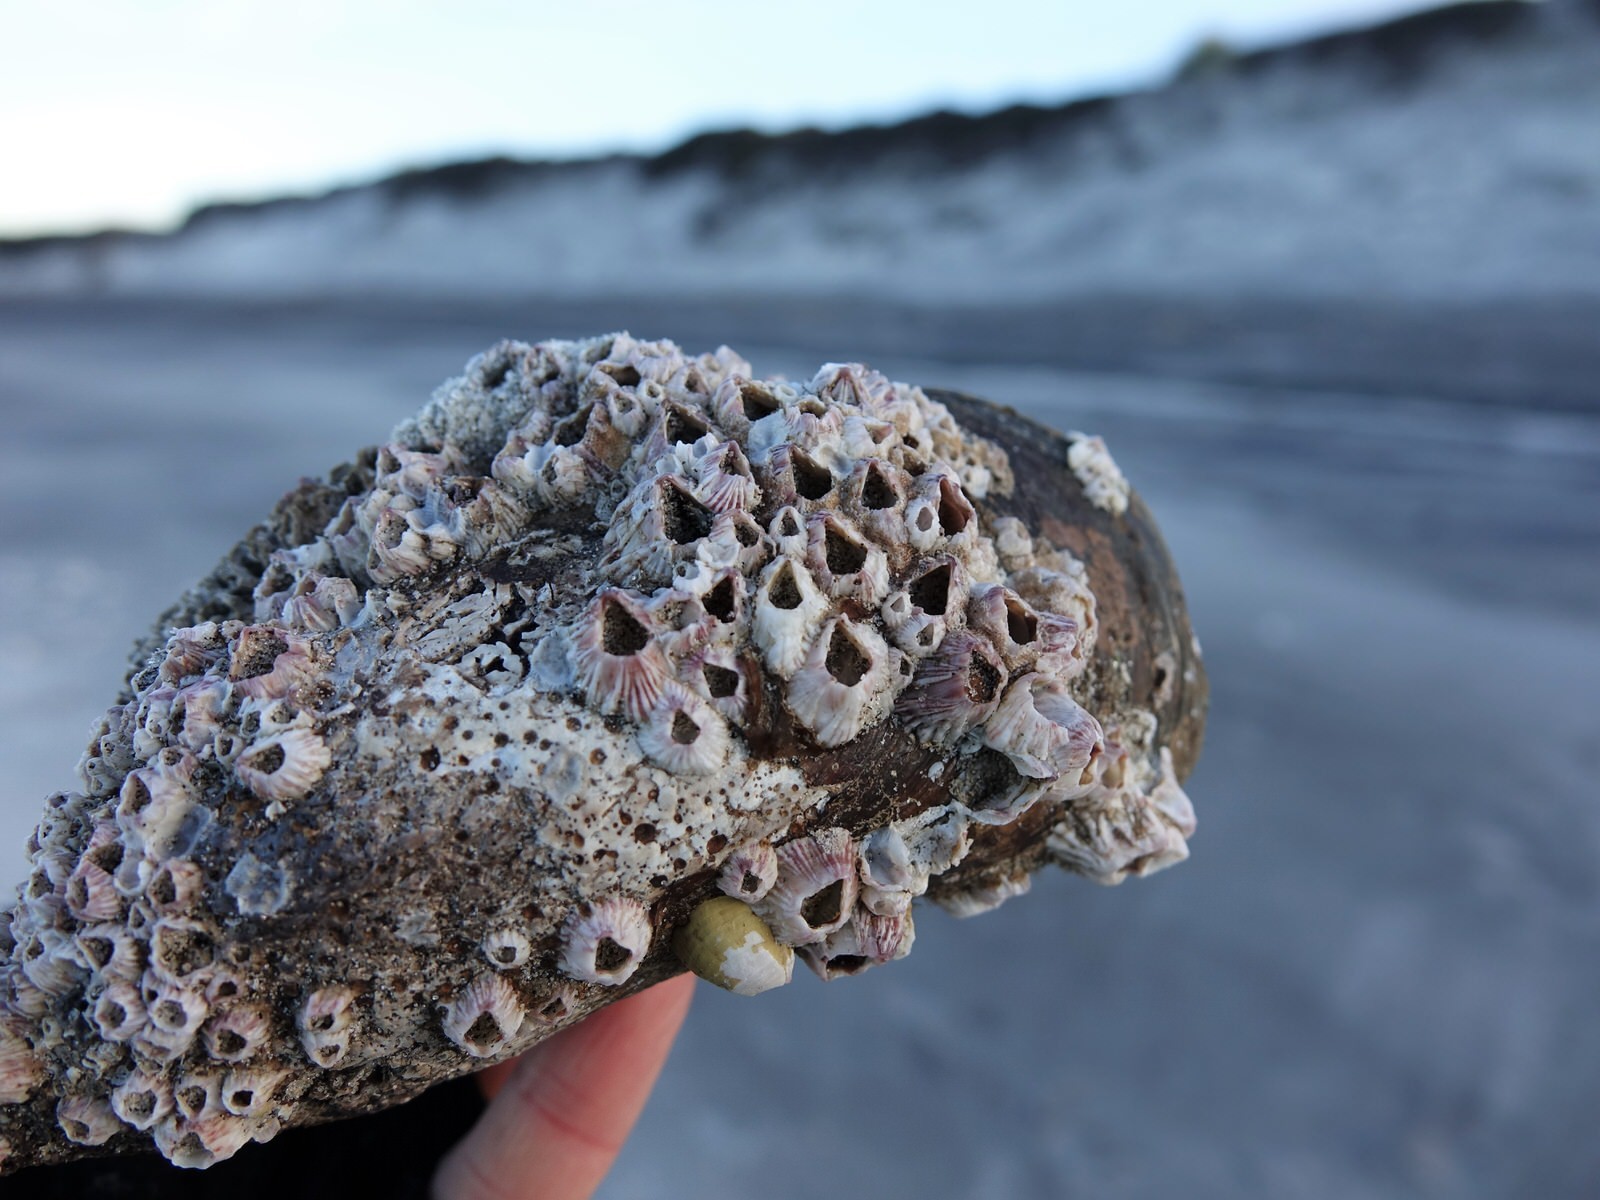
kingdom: Animalia
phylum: Arthropoda
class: Maxillopoda
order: Sessilia
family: Balanidae
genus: Balanus
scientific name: Balanus trigonus
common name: Triangle barnacle
